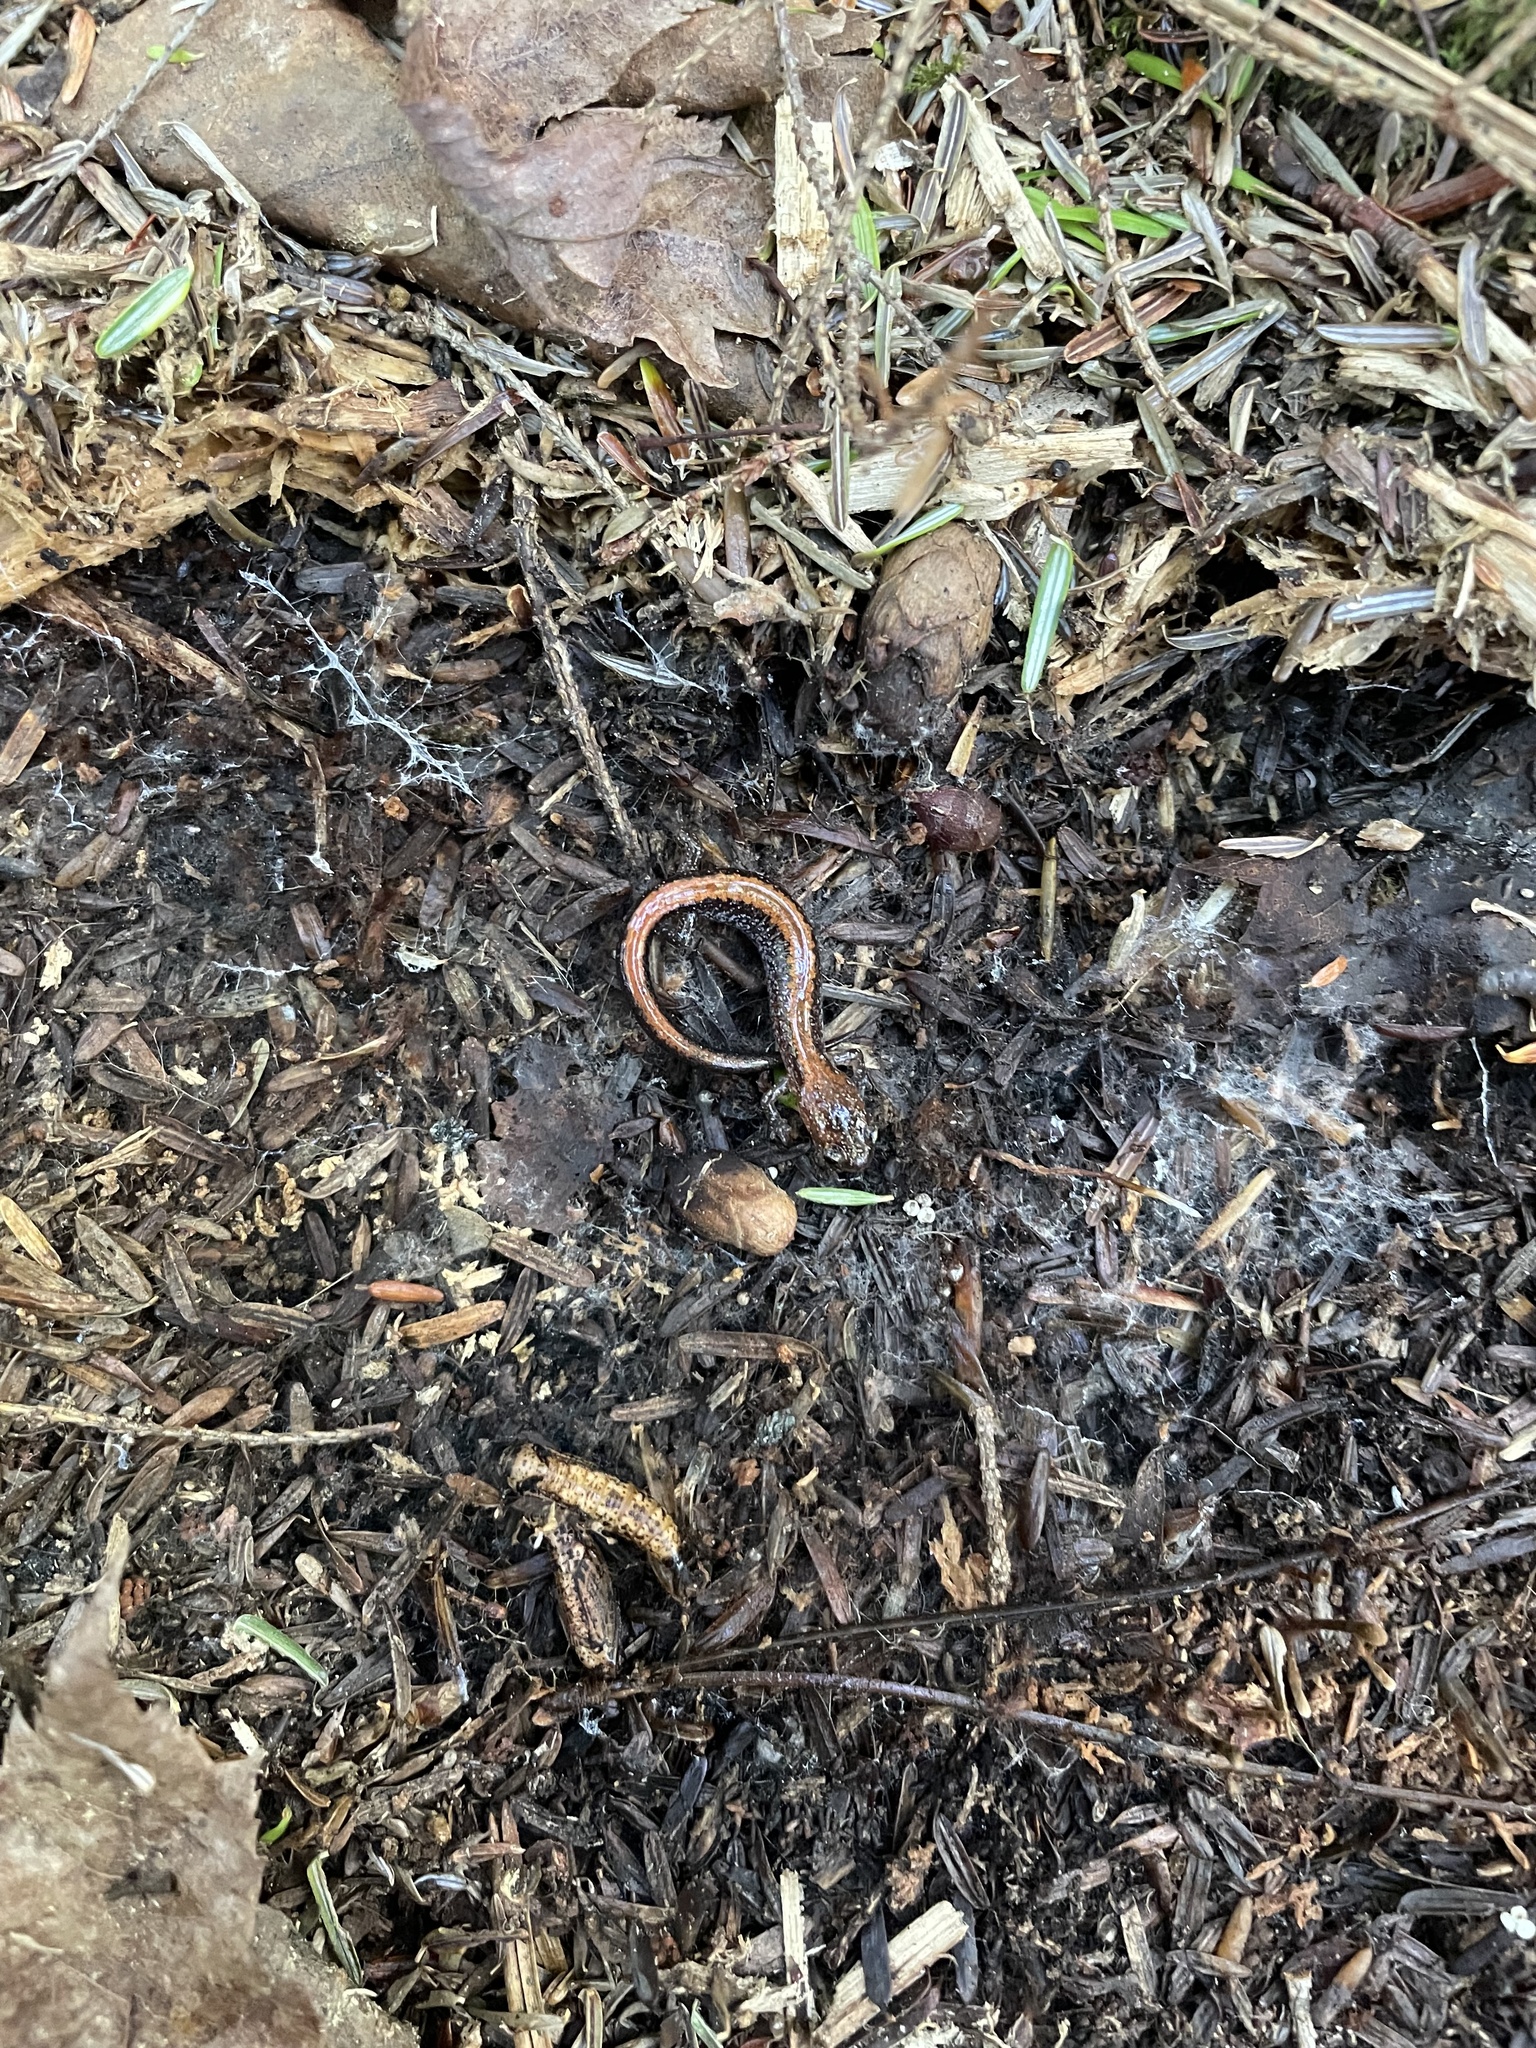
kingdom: Animalia
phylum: Chordata
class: Amphibia
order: Caudata
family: Plethodontidae
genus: Plethodon
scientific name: Plethodon cinereus
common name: Redback salamander
